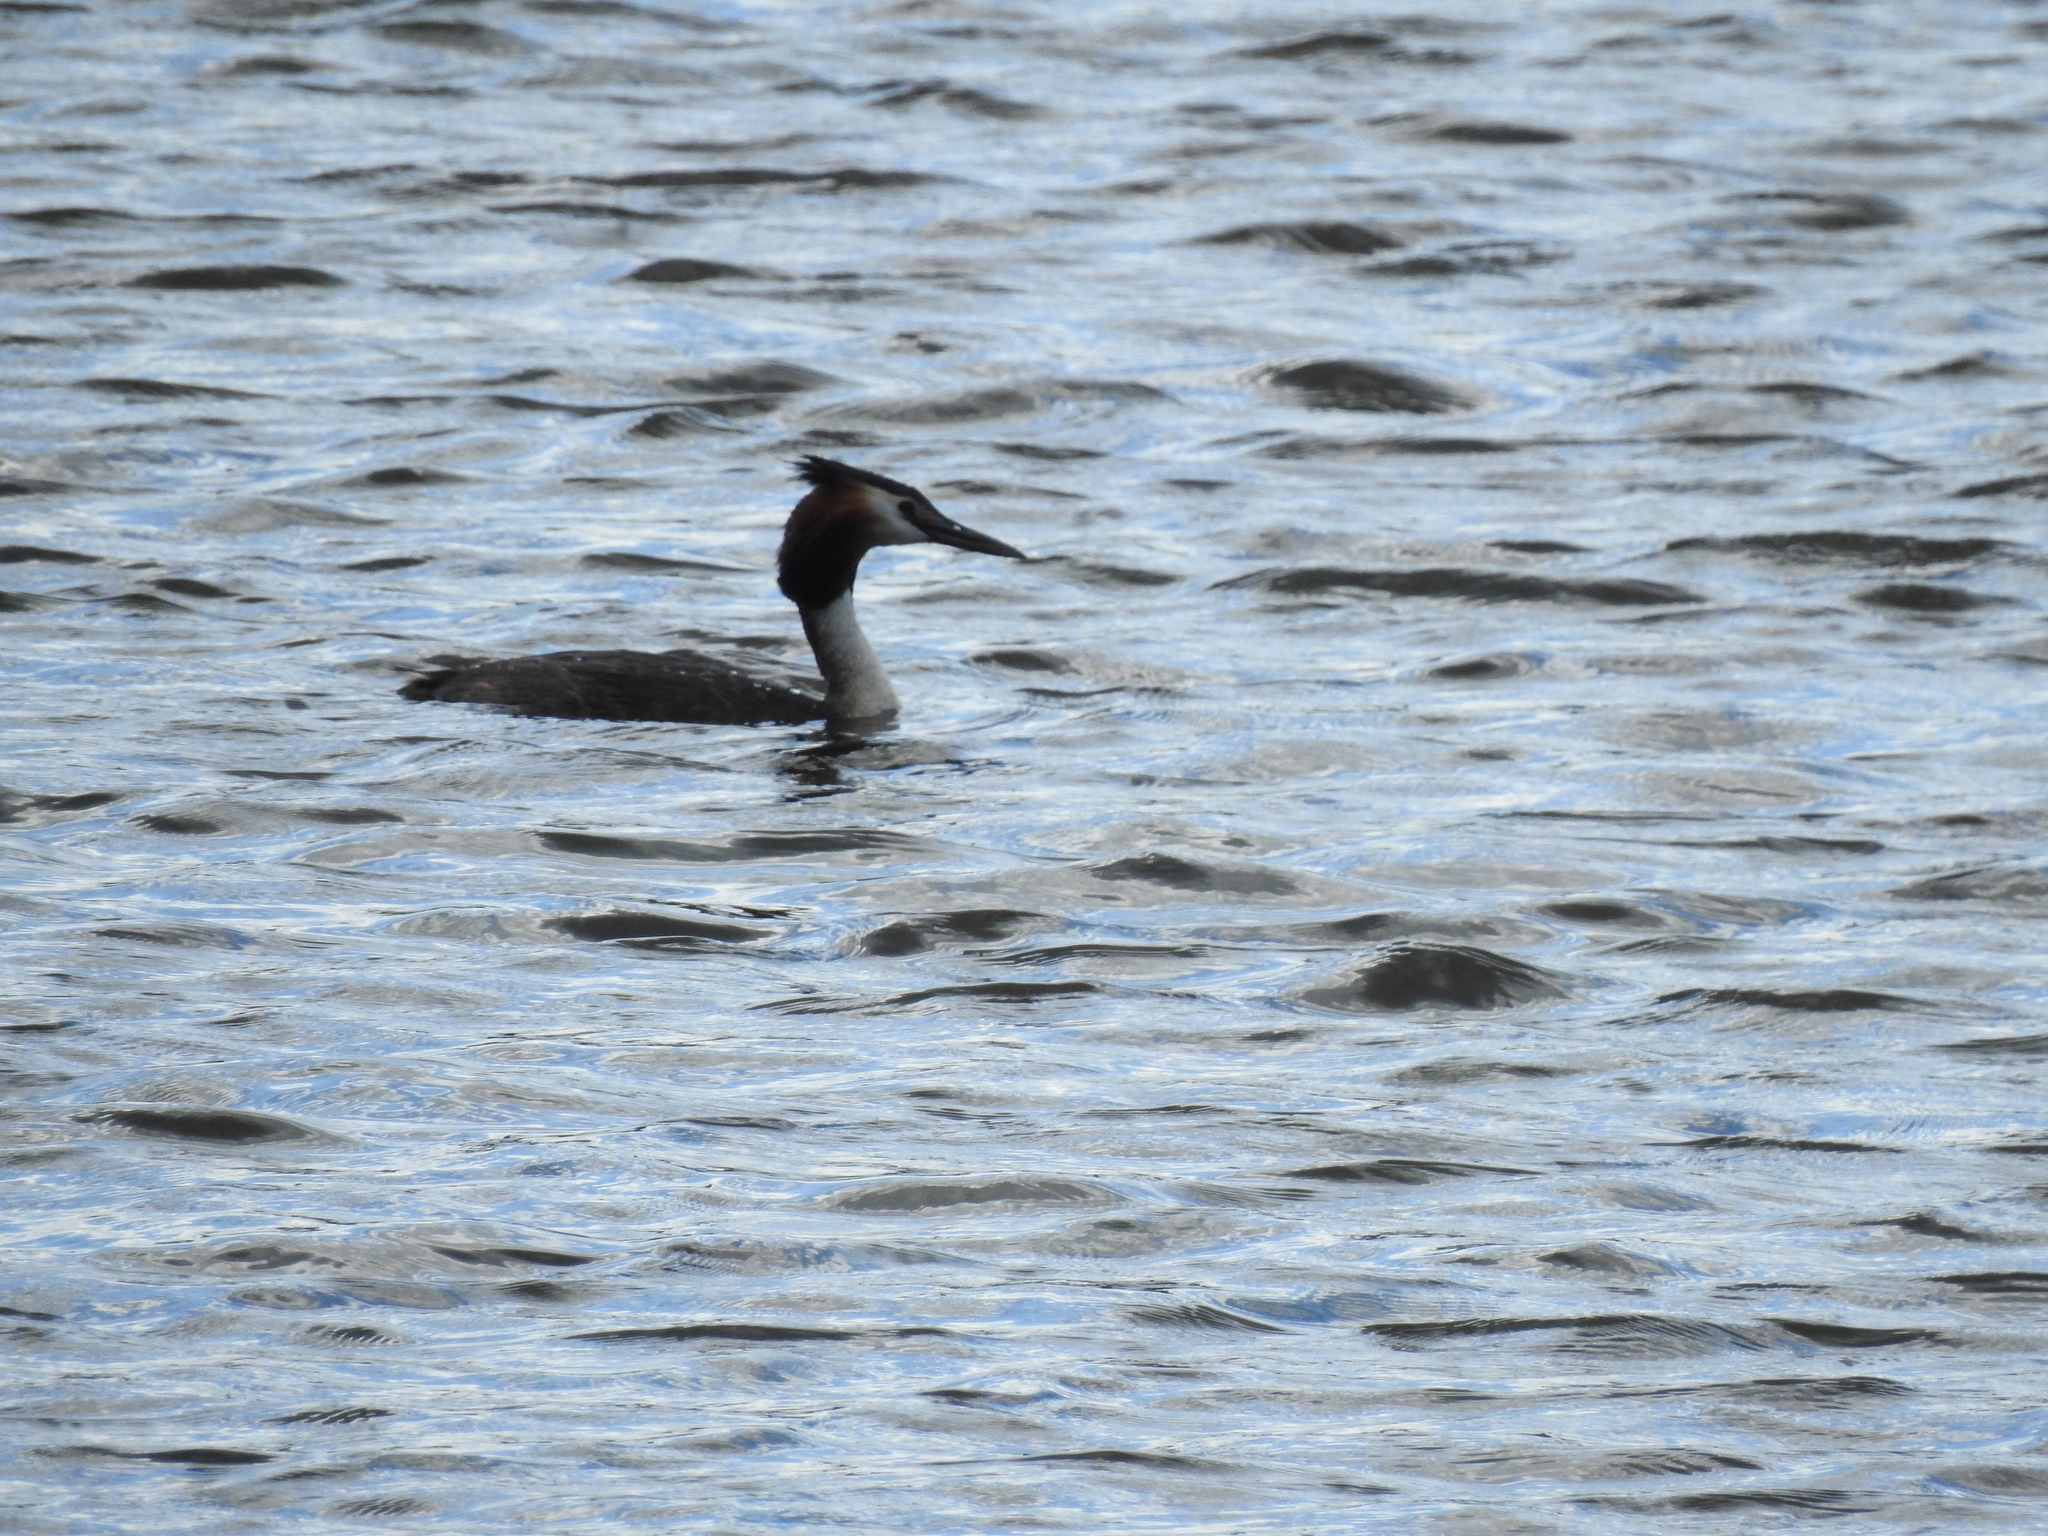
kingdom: Animalia
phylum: Chordata
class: Aves
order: Podicipediformes
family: Podicipedidae
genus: Podiceps
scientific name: Podiceps cristatus
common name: Great crested grebe
